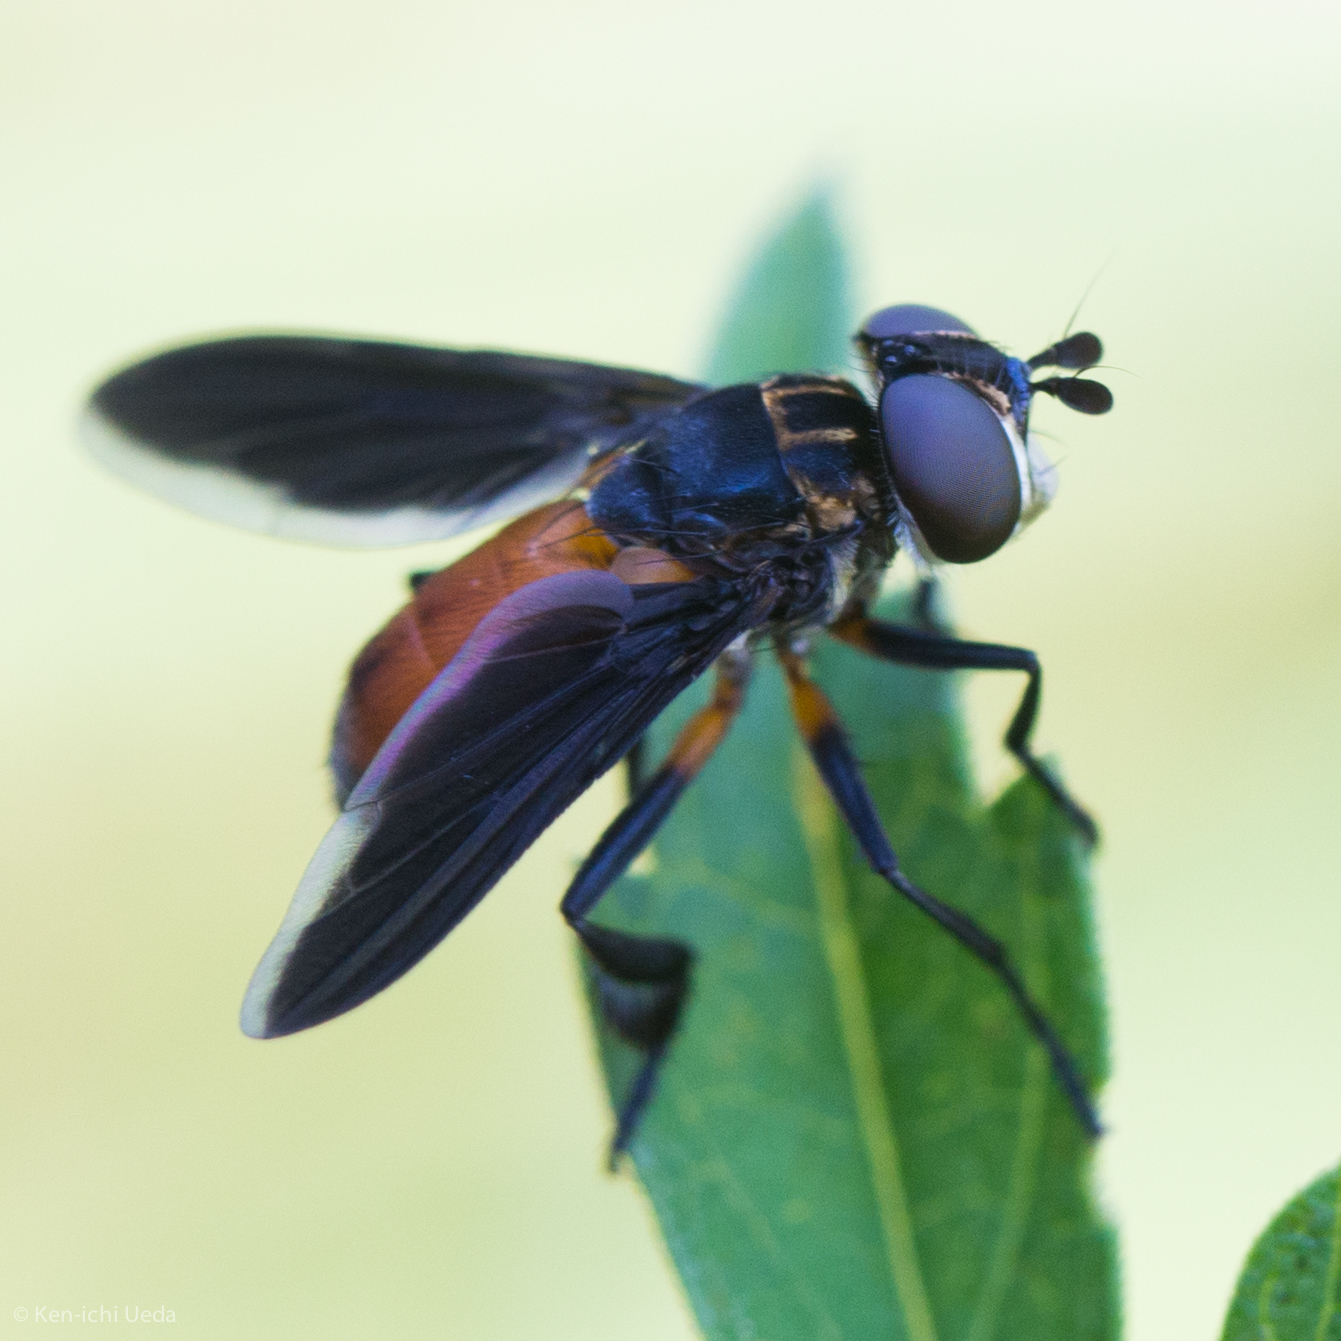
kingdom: Animalia
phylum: Arthropoda
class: Insecta
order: Diptera
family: Tachinidae
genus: Trichopoda
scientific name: Trichopoda pennipes
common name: Tachinid fly
